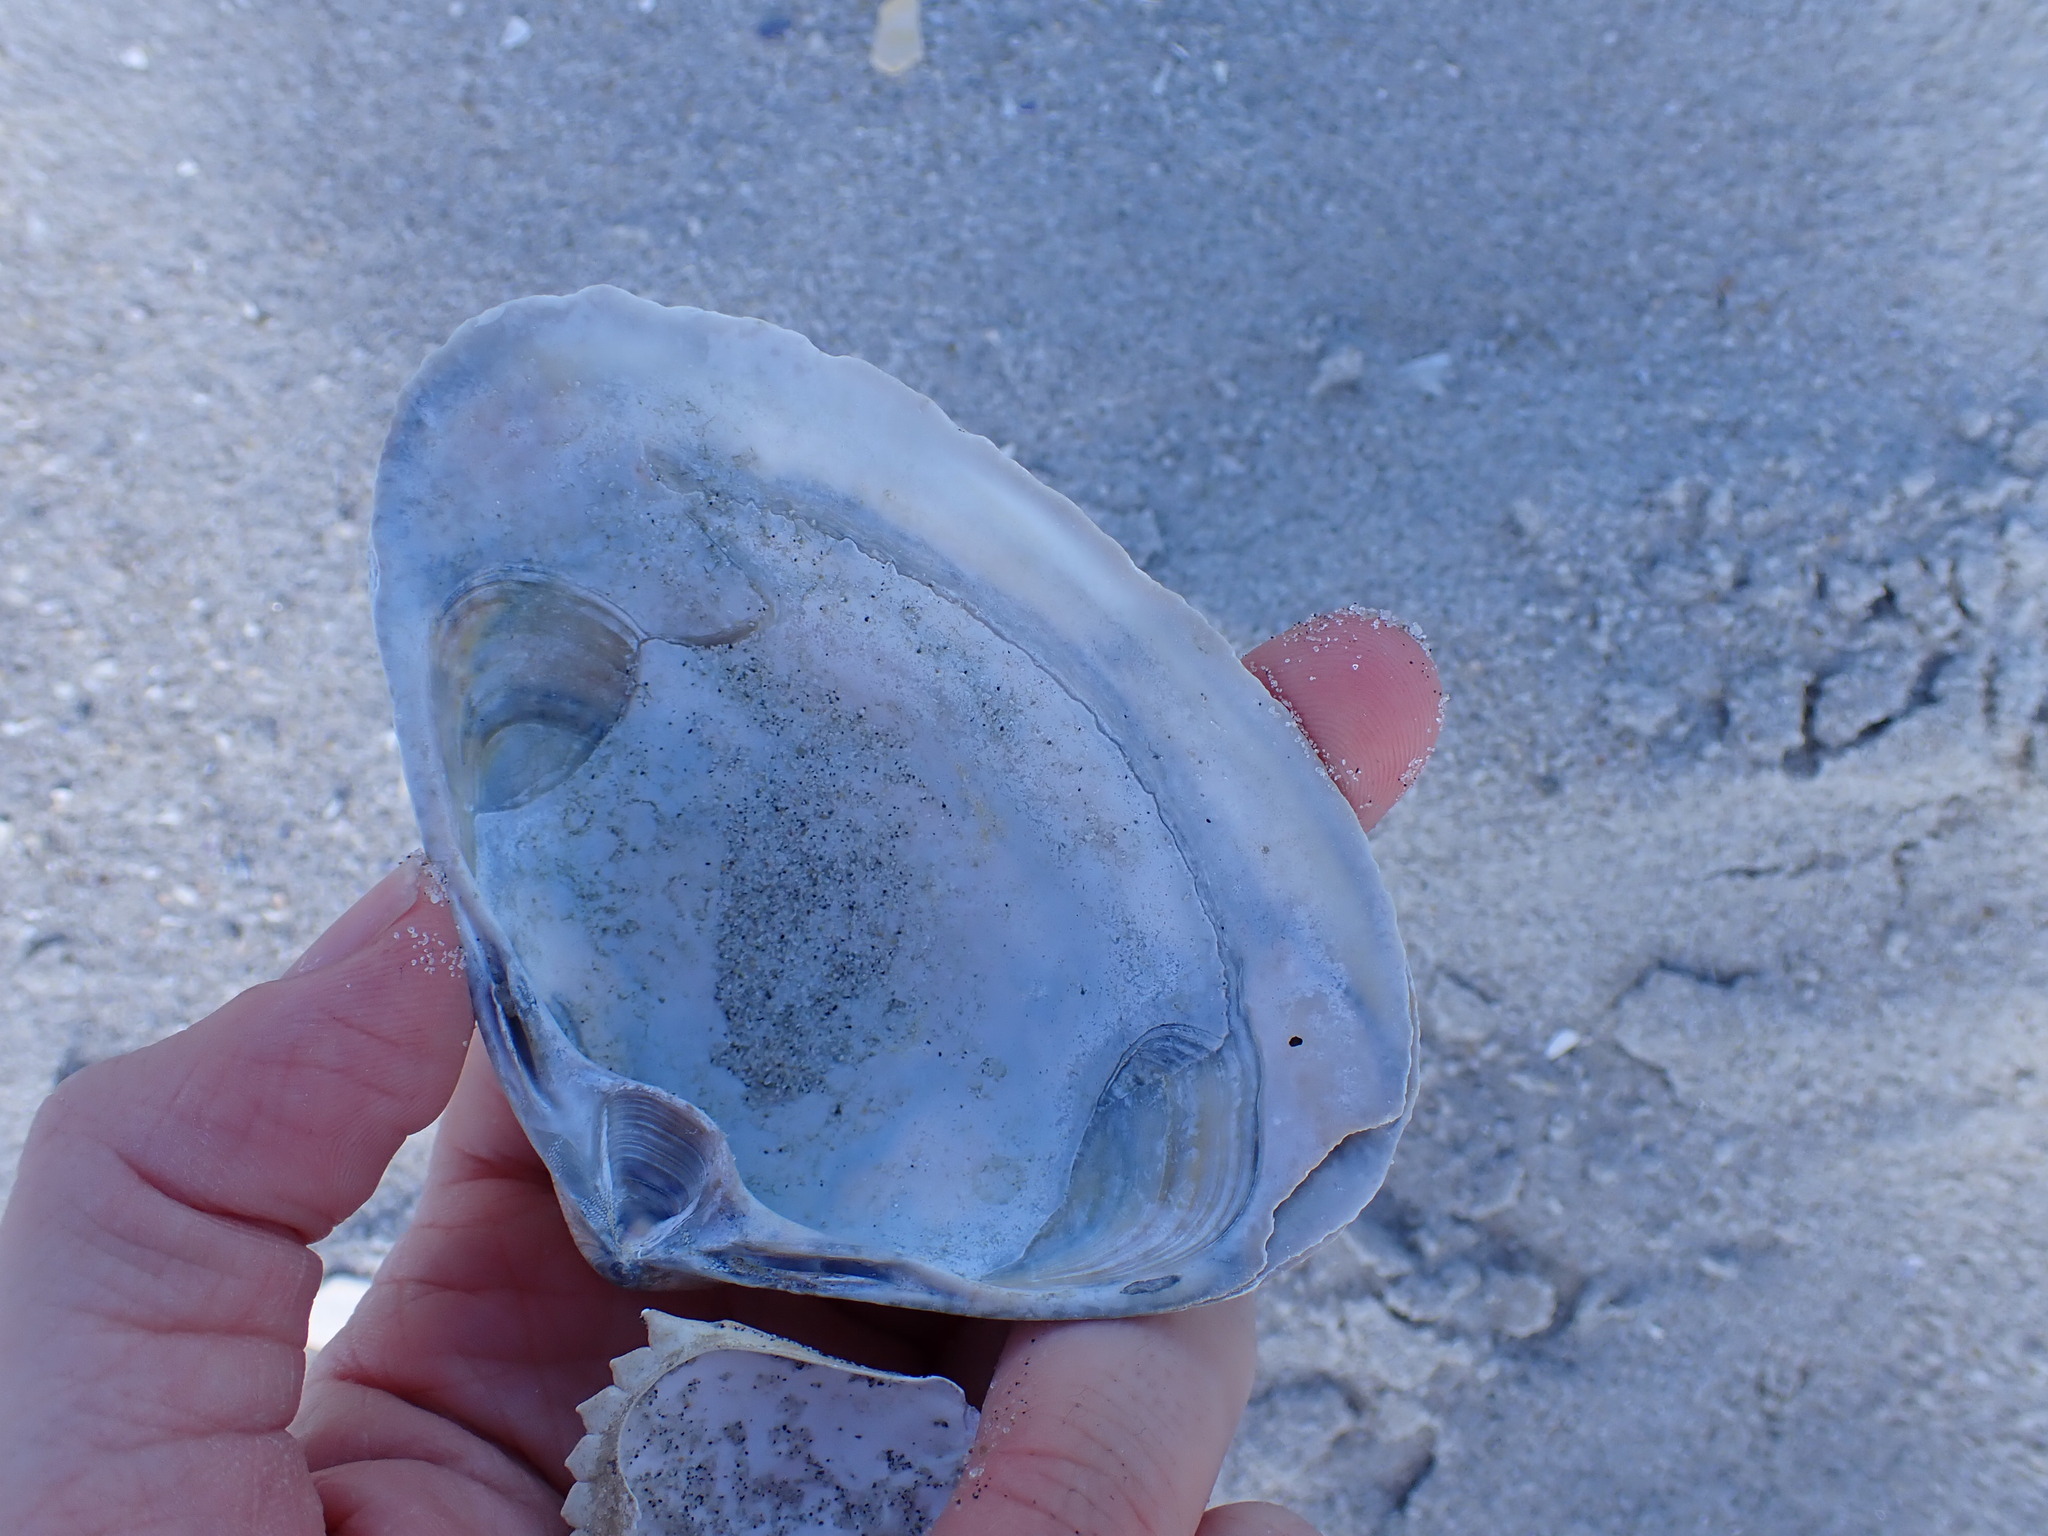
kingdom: Animalia
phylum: Mollusca
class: Bivalvia
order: Venerida
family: Mactridae
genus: Spisula
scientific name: Spisula solidissima
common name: Atlantic surf clam
